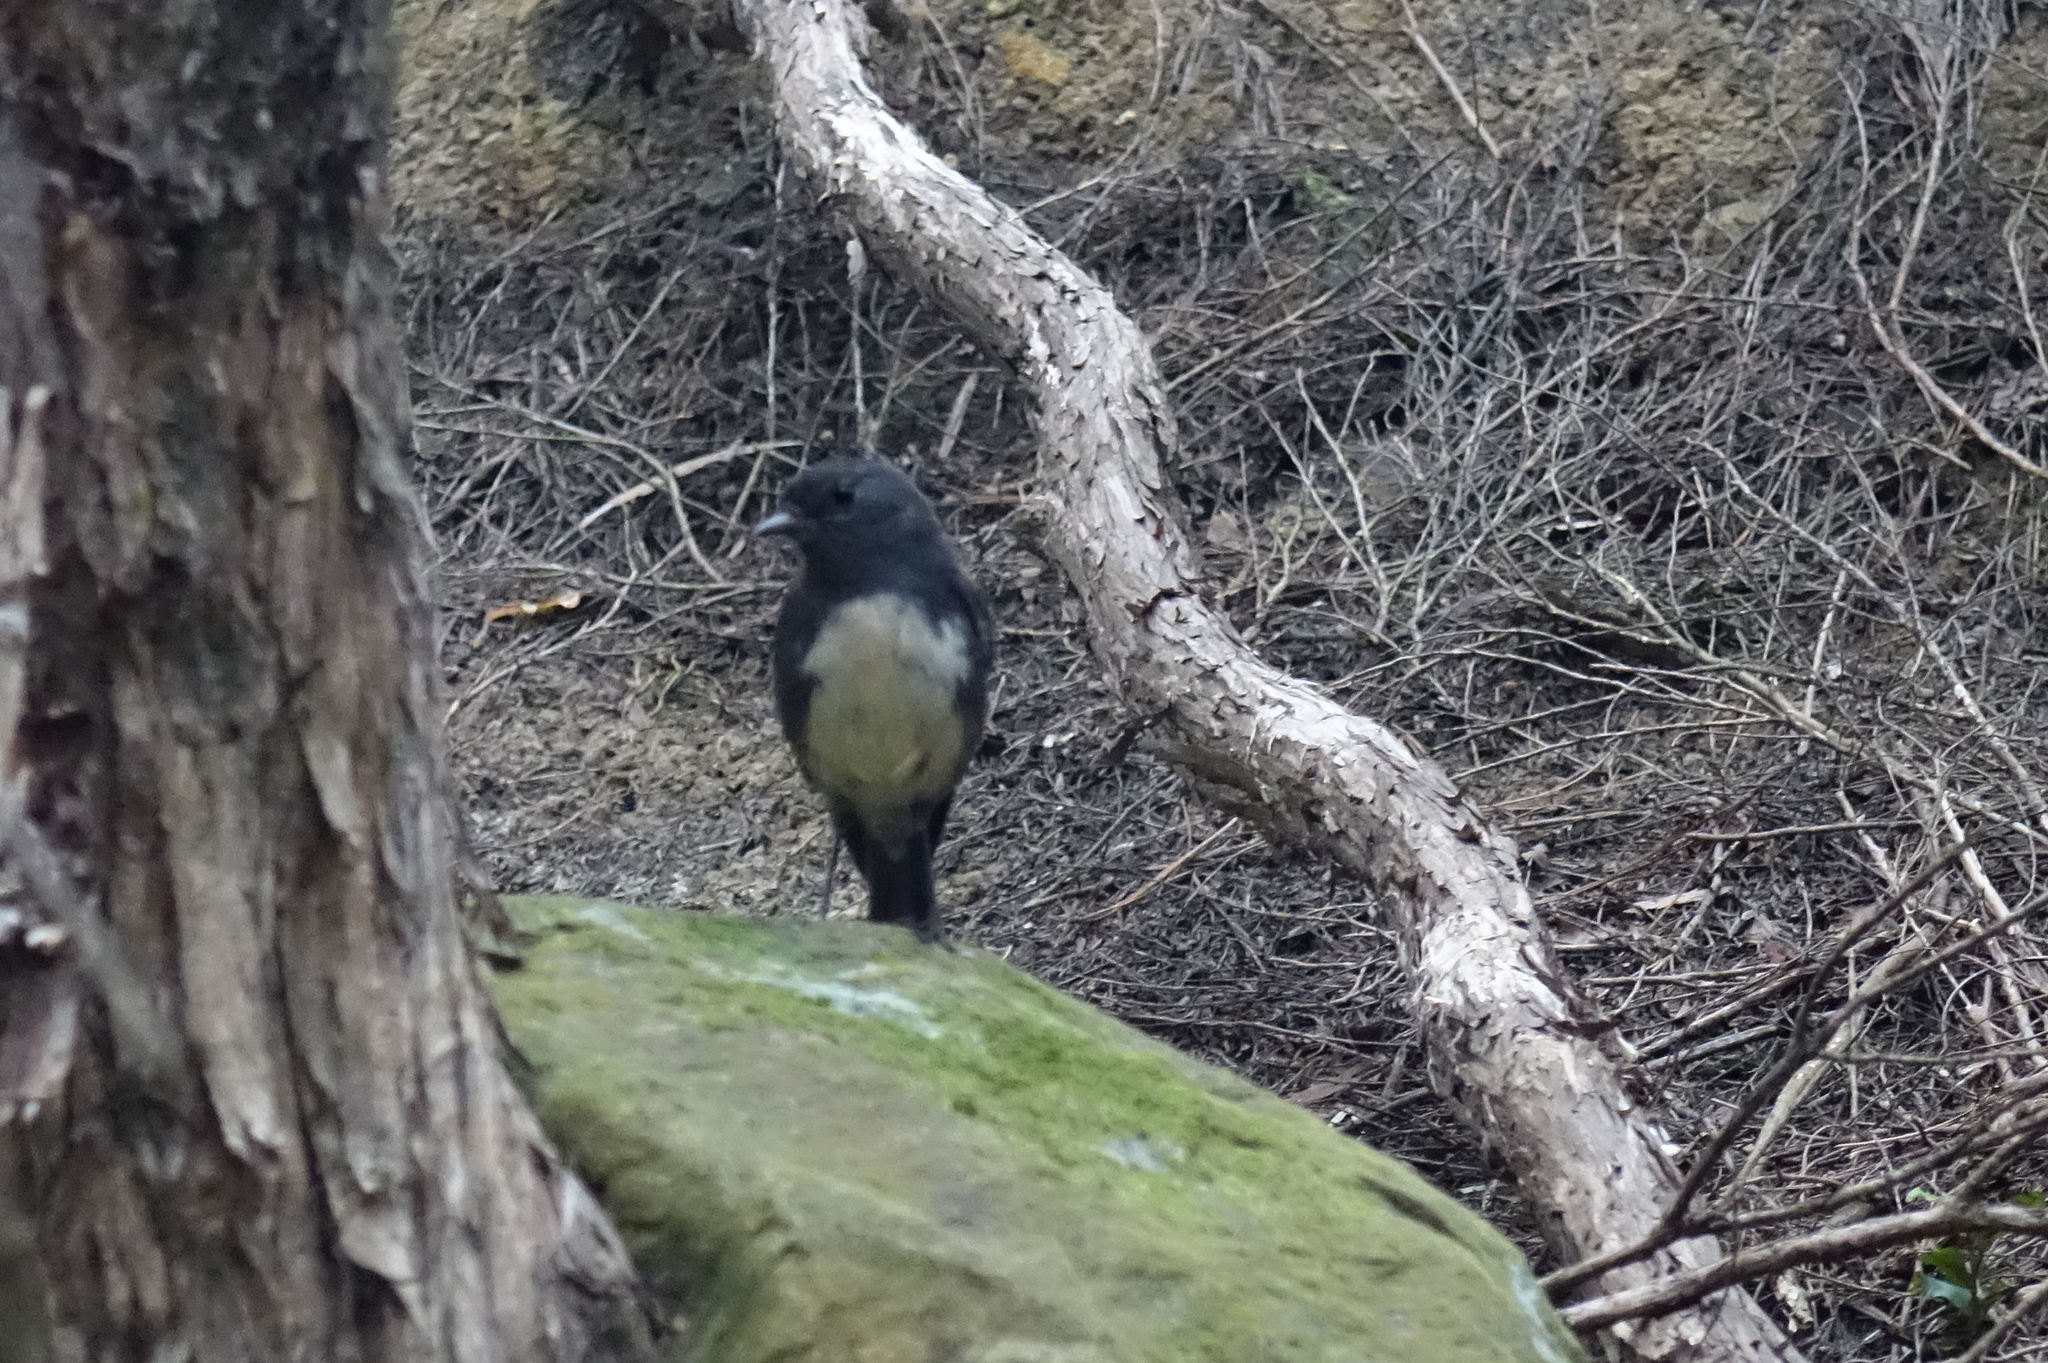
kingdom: Animalia
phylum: Chordata
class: Aves
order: Passeriformes
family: Petroicidae
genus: Petroica
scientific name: Petroica australis
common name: New zealand robin
